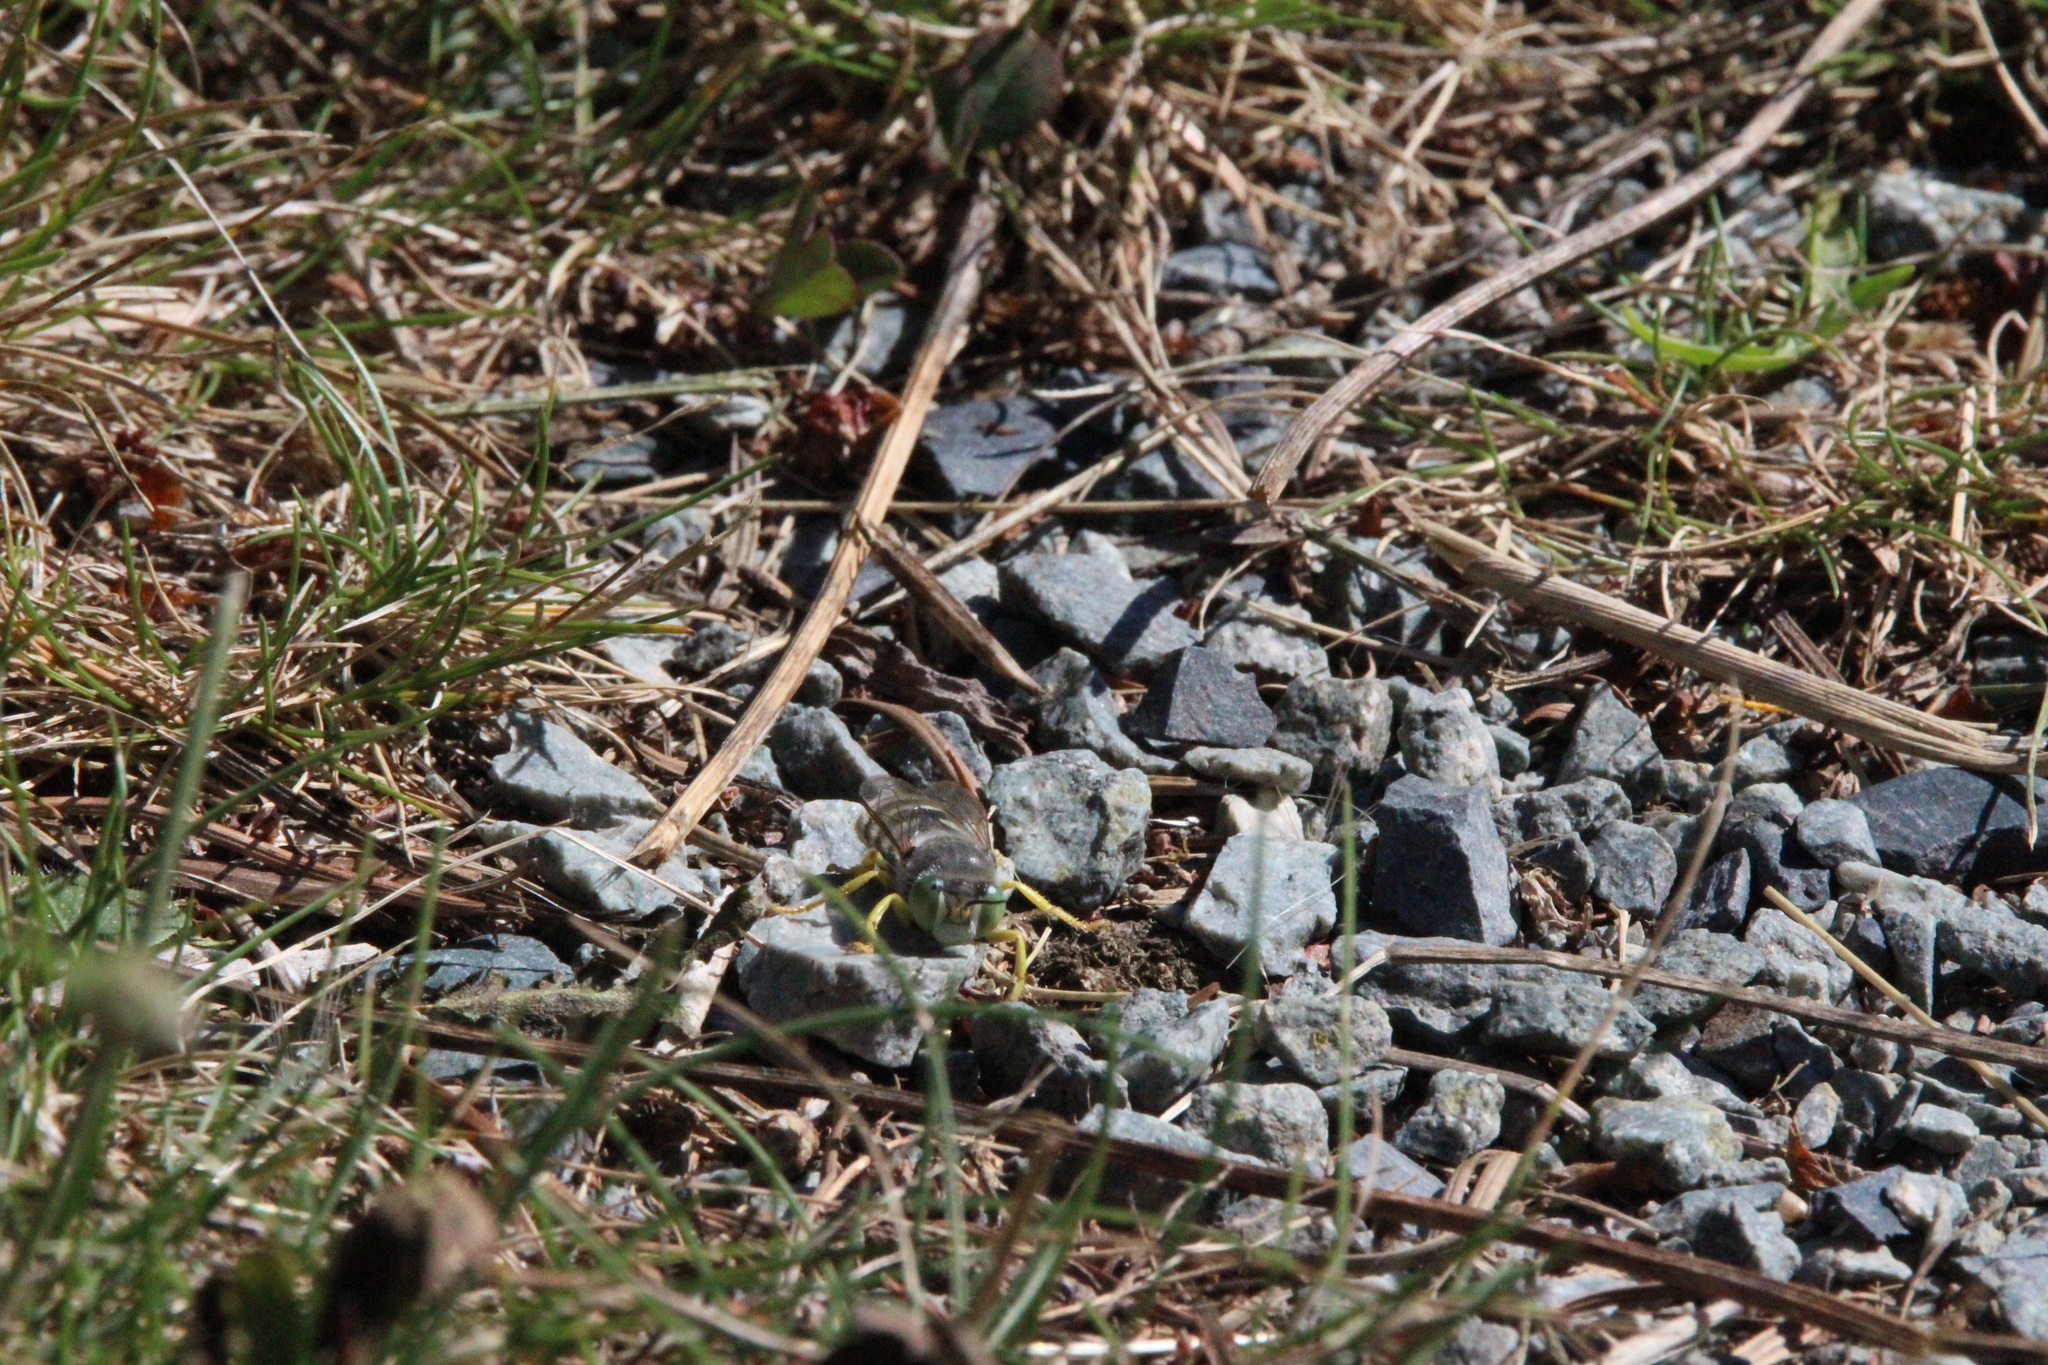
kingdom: Animalia
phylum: Arthropoda
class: Insecta
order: Hymenoptera
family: Crabronidae
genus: Bembix
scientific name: Bembix americana
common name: American sand wasp
